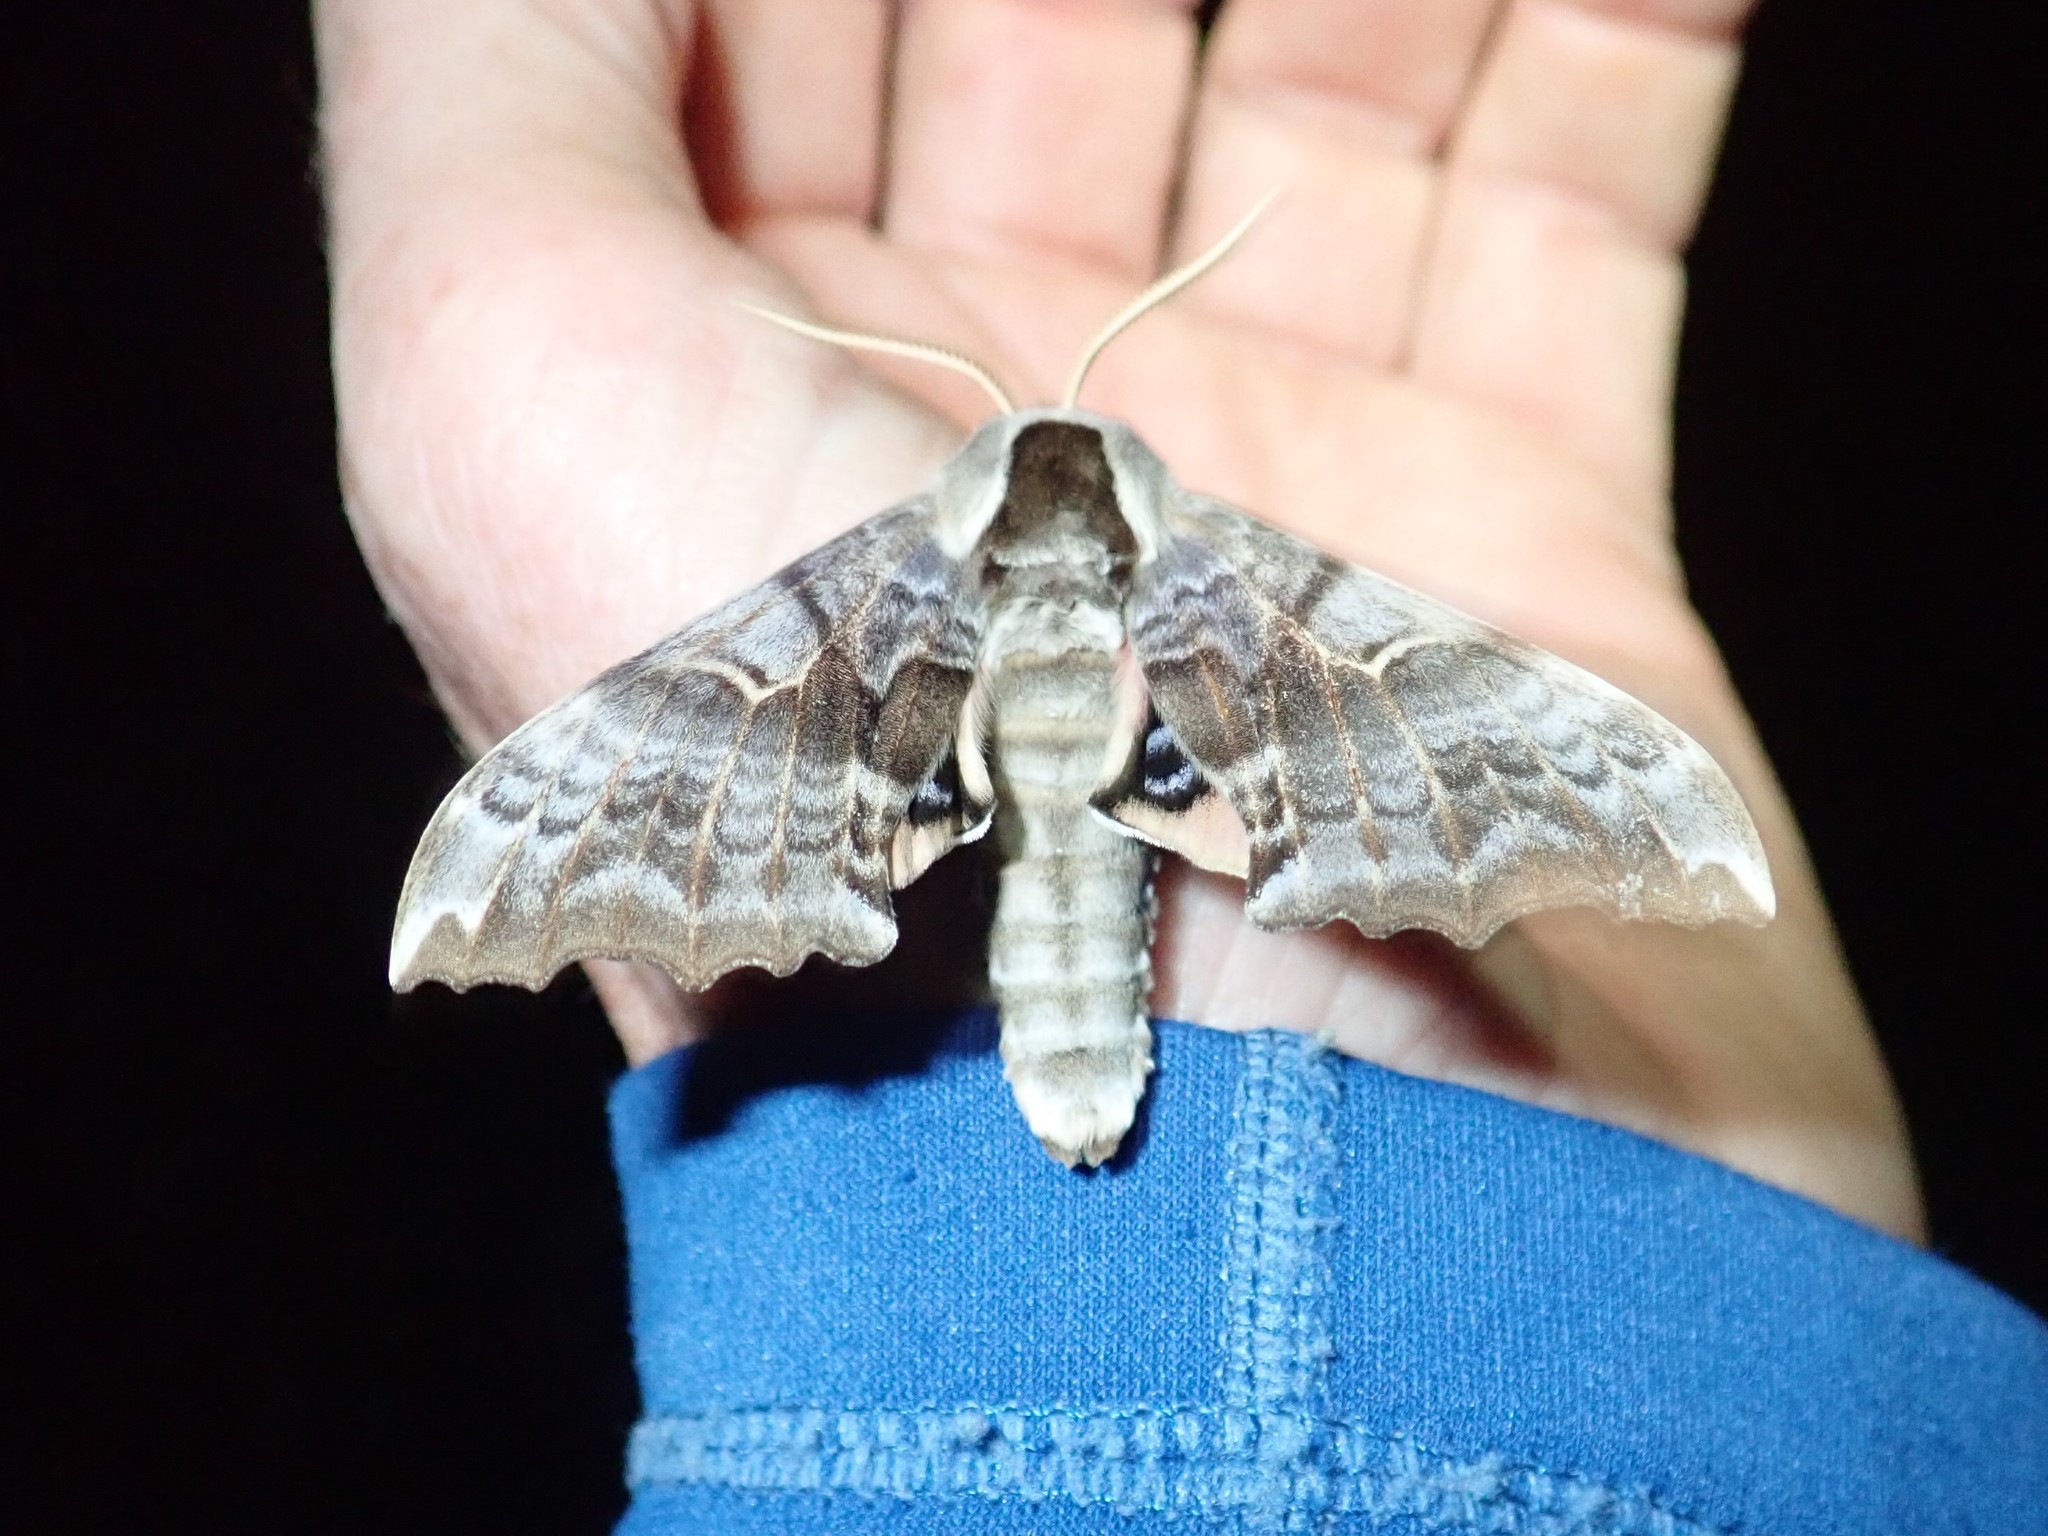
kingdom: Animalia
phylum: Arthropoda
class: Insecta
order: Lepidoptera
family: Sphingidae
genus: Smerinthus
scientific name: Smerinthus cerisyi
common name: Cerisy's sphinx moth
